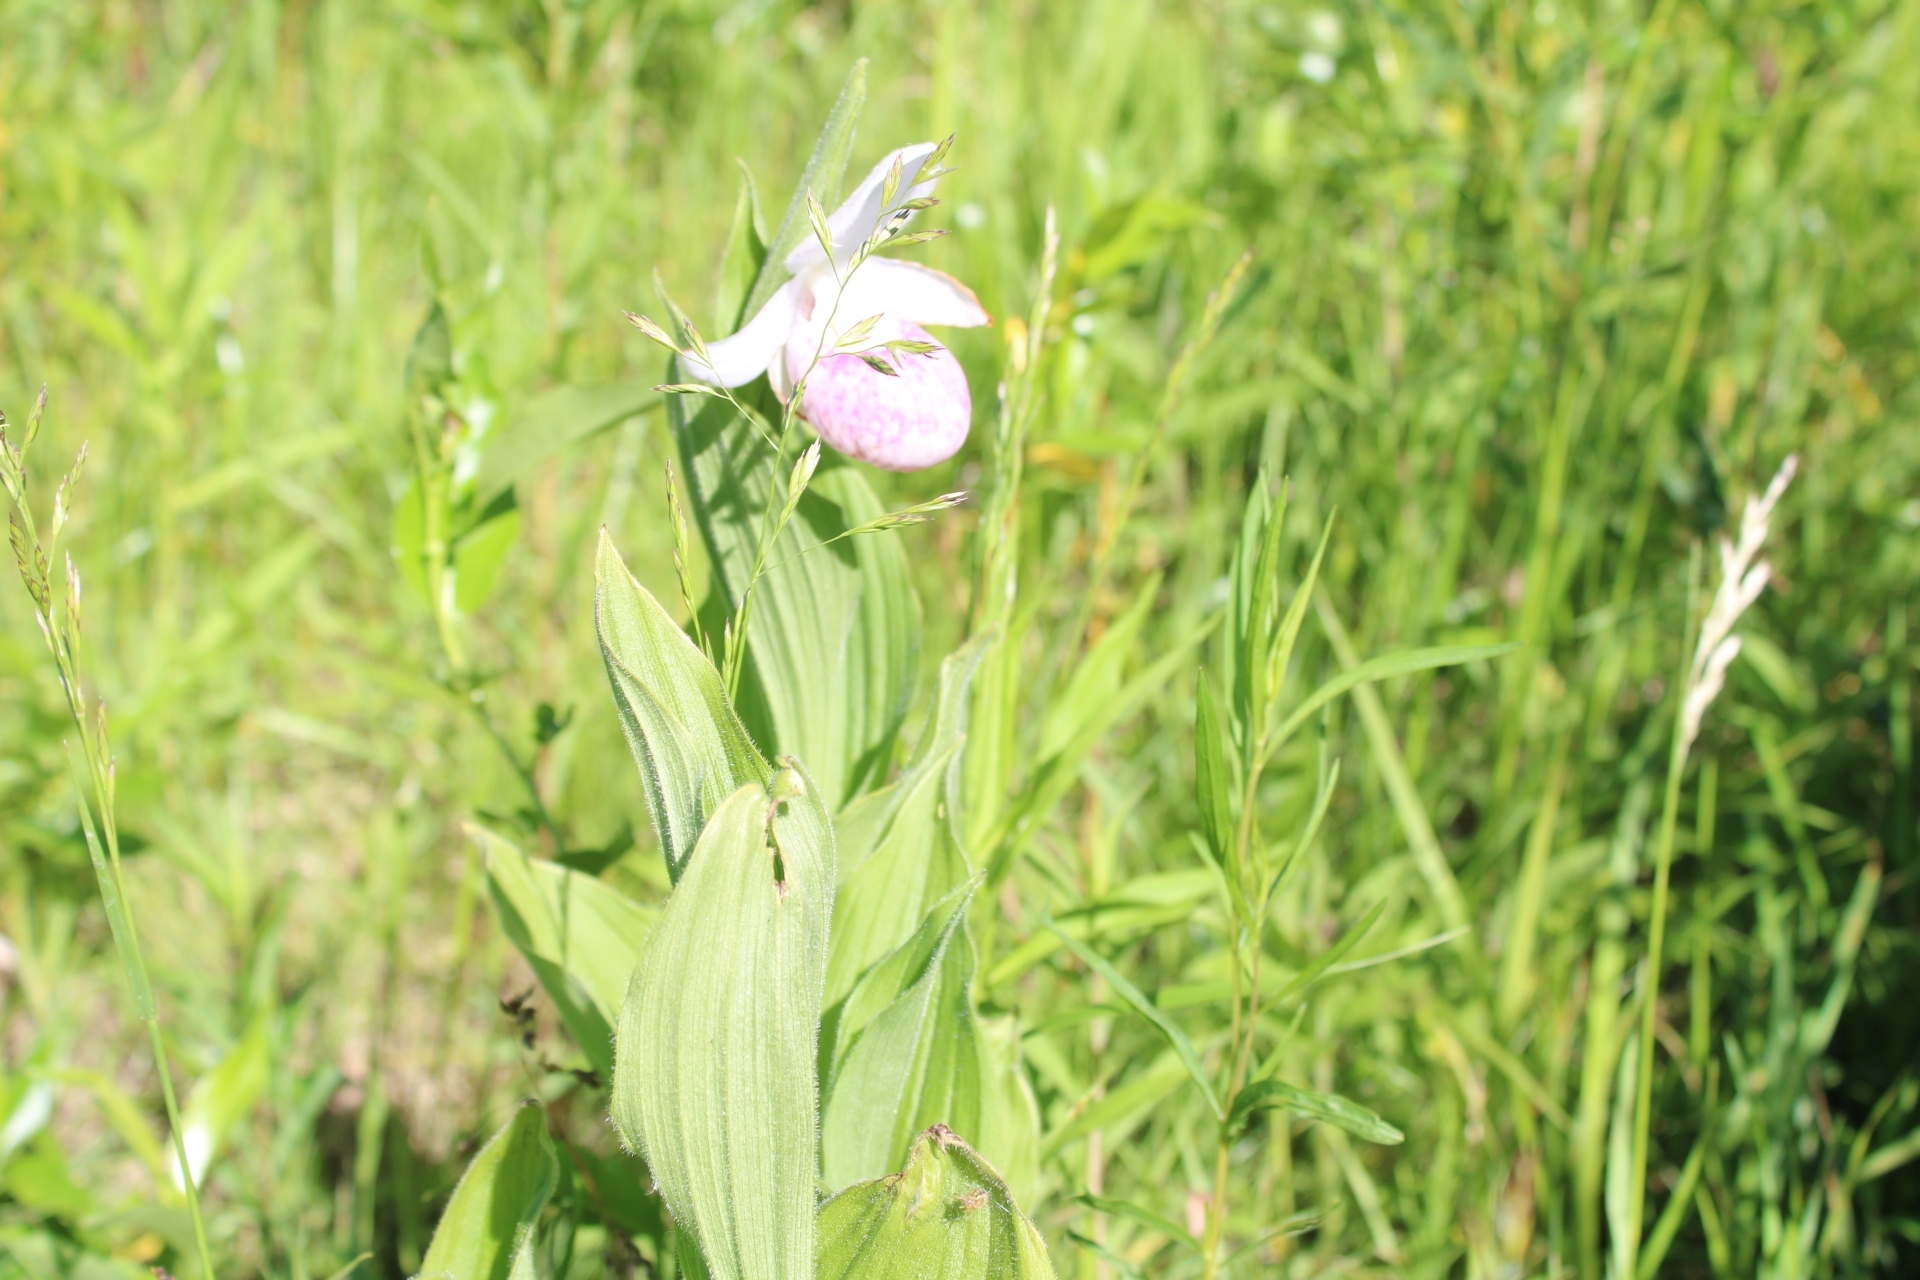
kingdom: Plantae
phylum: Tracheophyta
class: Liliopsida
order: Asparagales
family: Orchidaceae
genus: Cypripedium
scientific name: Cypripedium reginae
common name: Queen lady's-slipper
